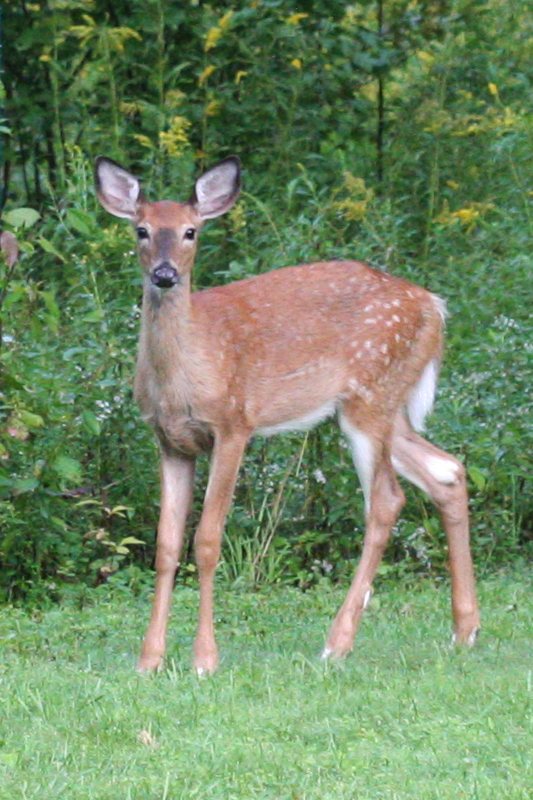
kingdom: Animalia
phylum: Chordata
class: Mammalia
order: Artiodactyla
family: Cervidae
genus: Odocoileus
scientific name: Odocoileus virginianus
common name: White-tailed deer
